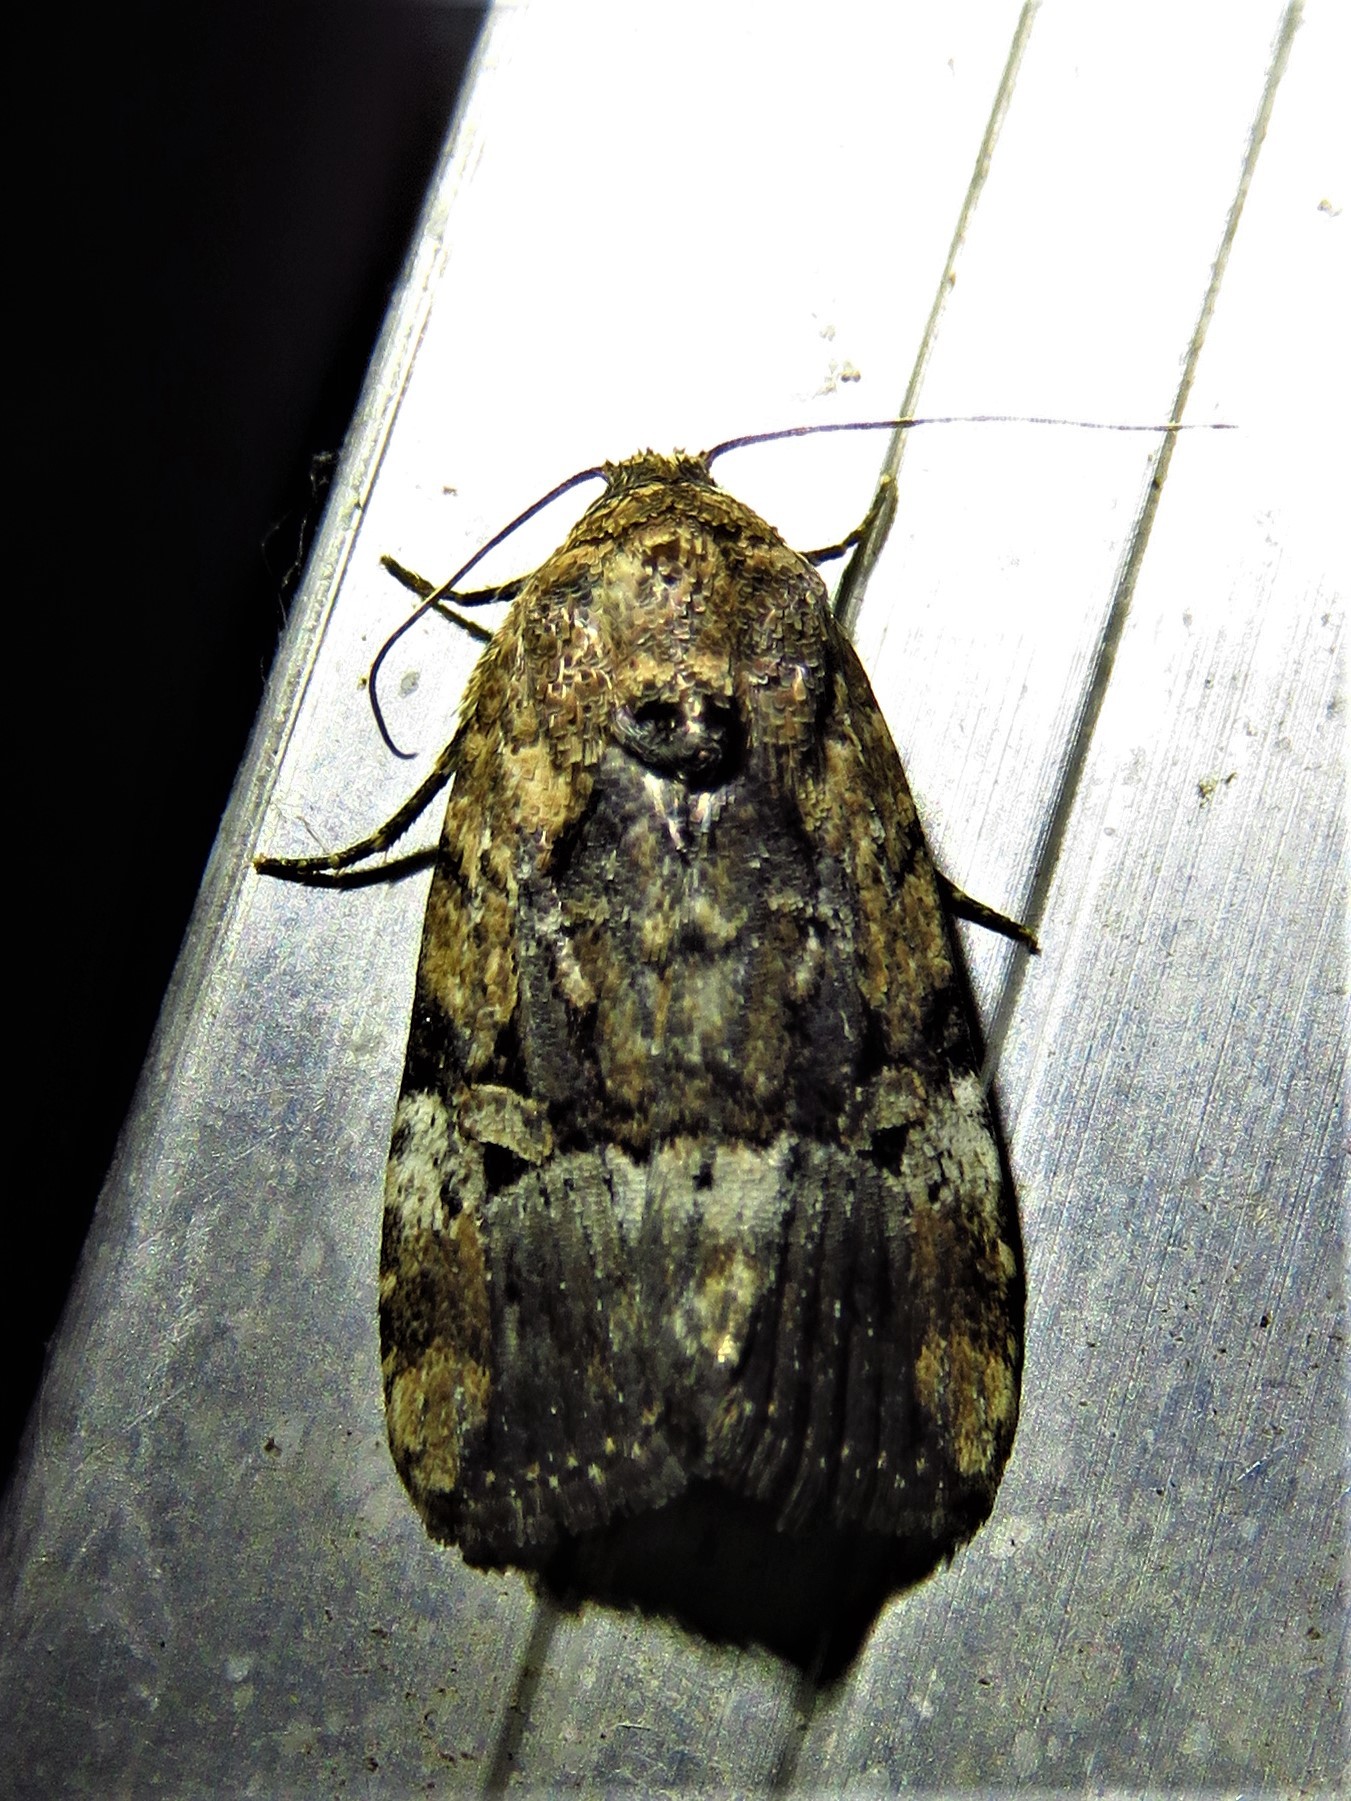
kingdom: Animalia
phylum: Arthropoda
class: Insecta
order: Lepidoptera
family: Noctuidae
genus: Elaphria
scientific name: Elaphria chalcedonia
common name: Chalcedony midget
